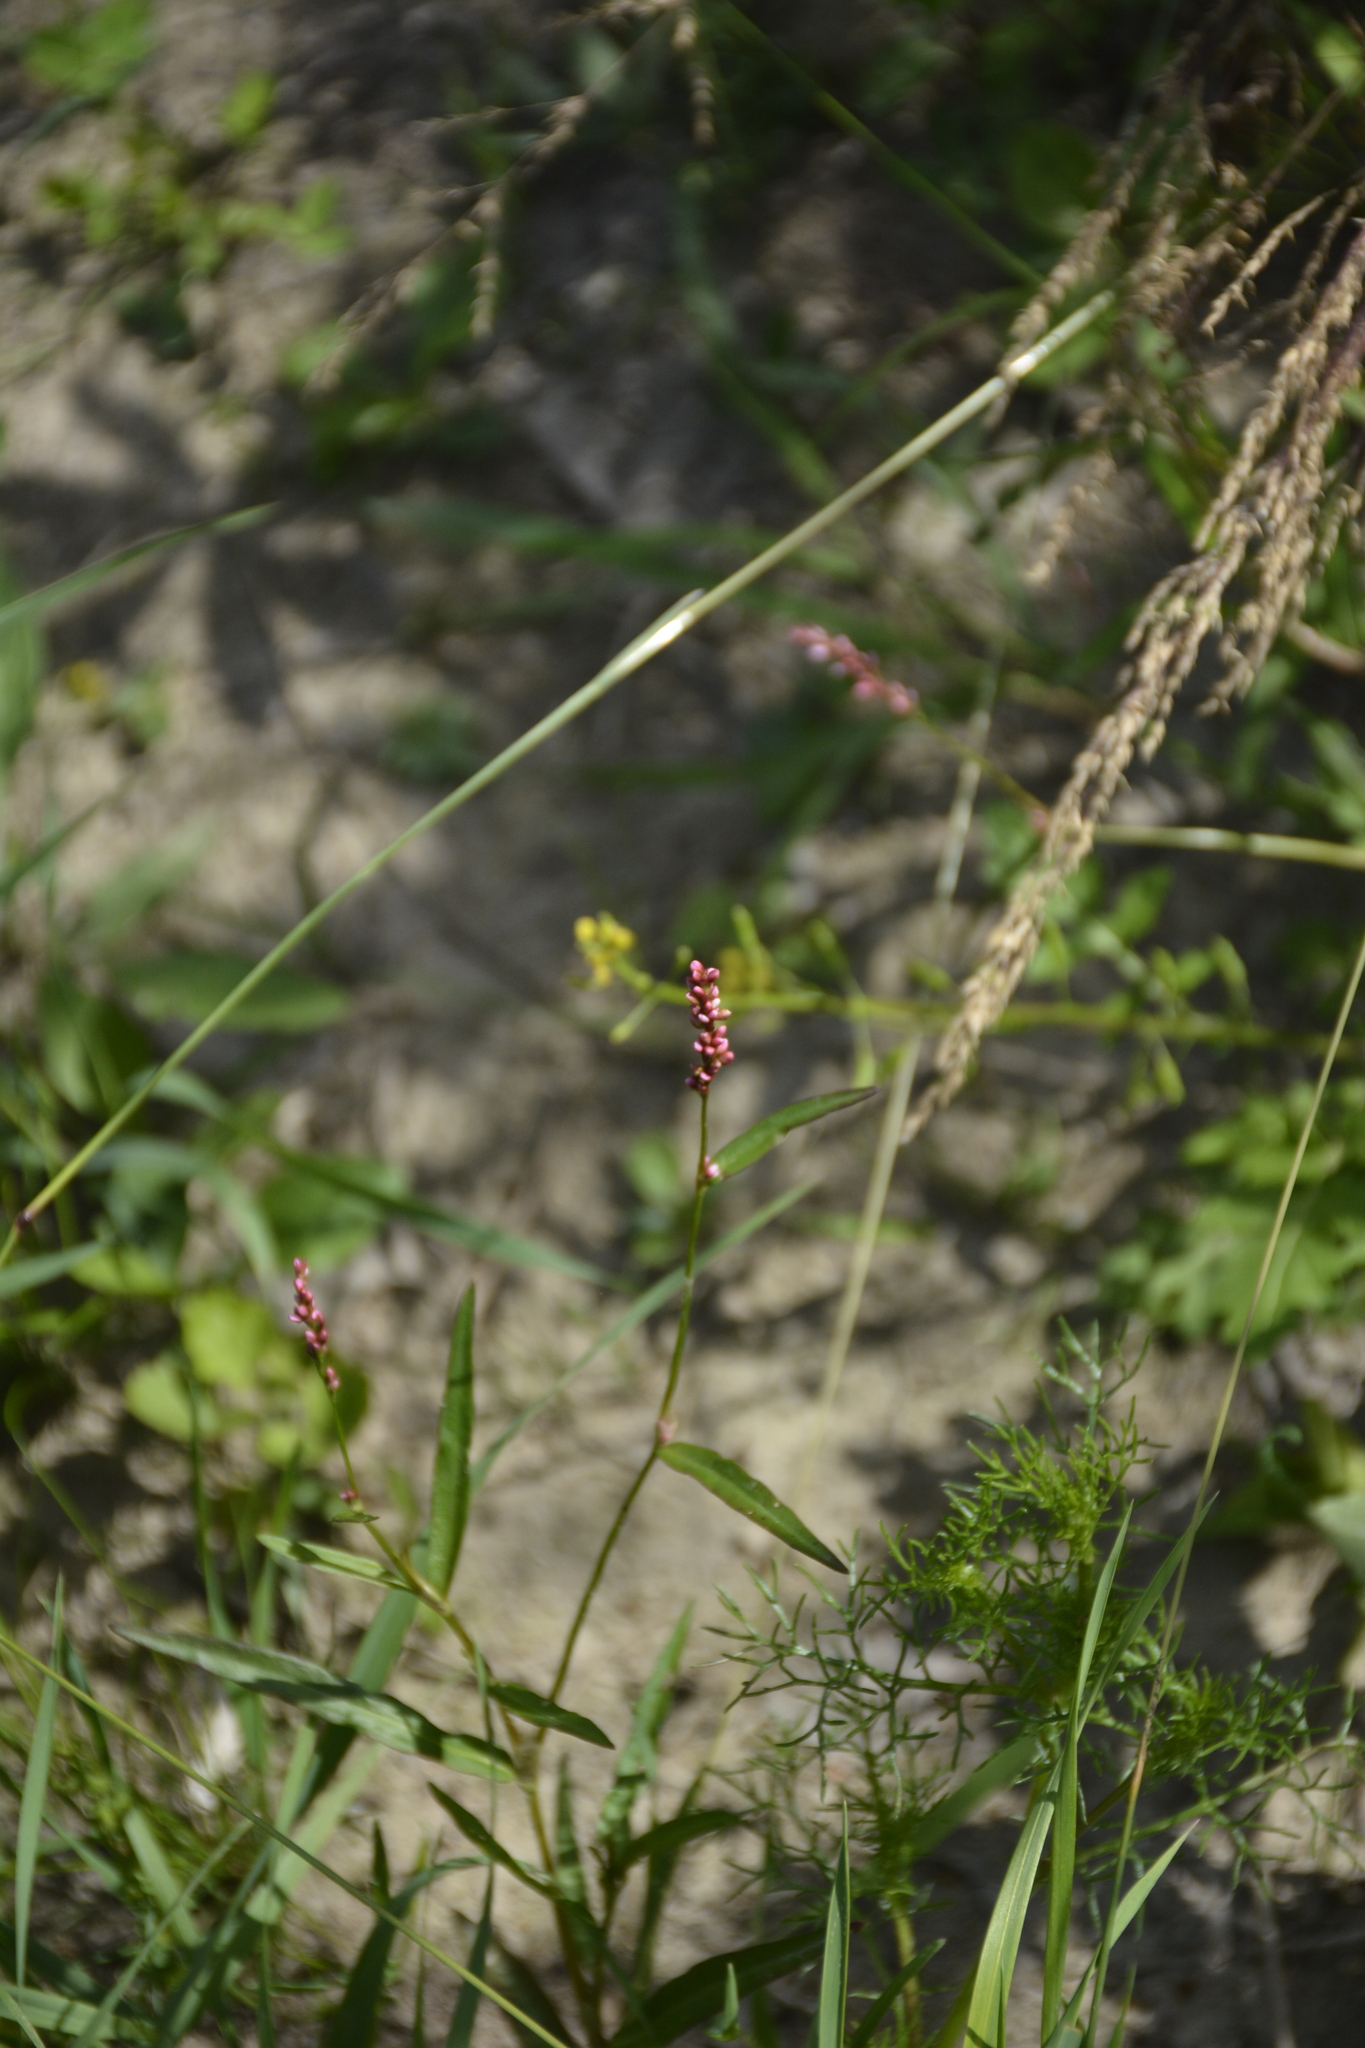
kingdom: Plantae
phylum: Tracheophyta
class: Magnoliopsida
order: Caryophyllales
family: Polygonaceae
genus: Persicaria
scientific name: Persicaria minor
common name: Small water-pepper
